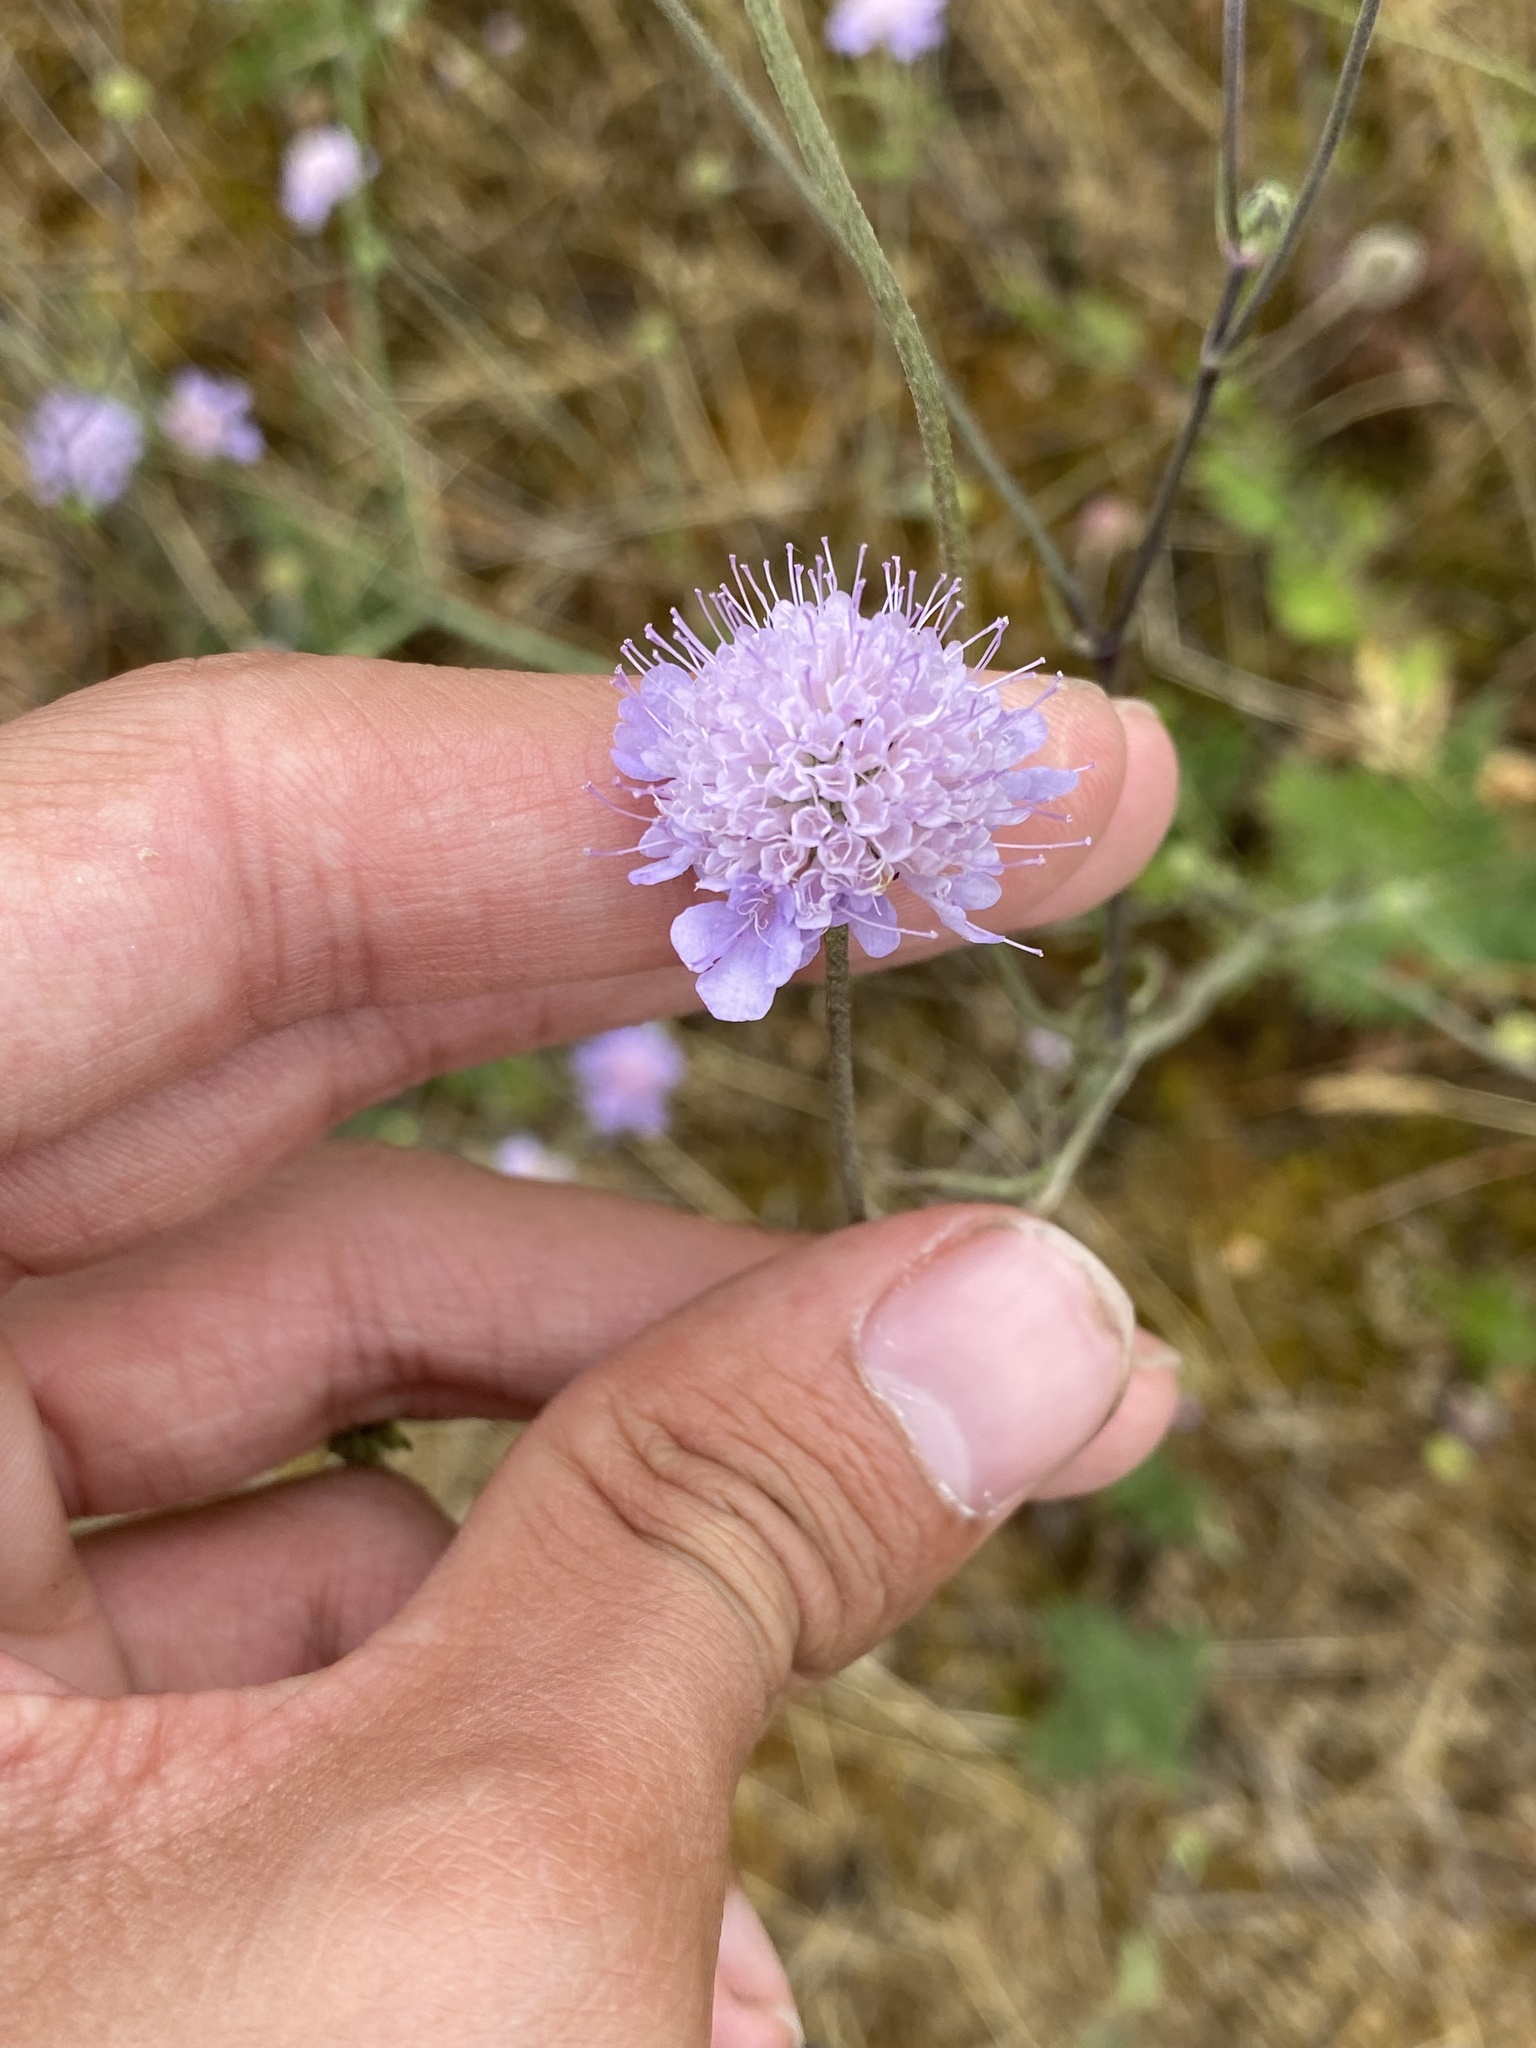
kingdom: Plantae
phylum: Tracheophyta
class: Magnoliopsida
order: Dipsacales
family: Caprifoliaceae
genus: Knautia
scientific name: Knautia arvensis
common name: Field scabiosa
